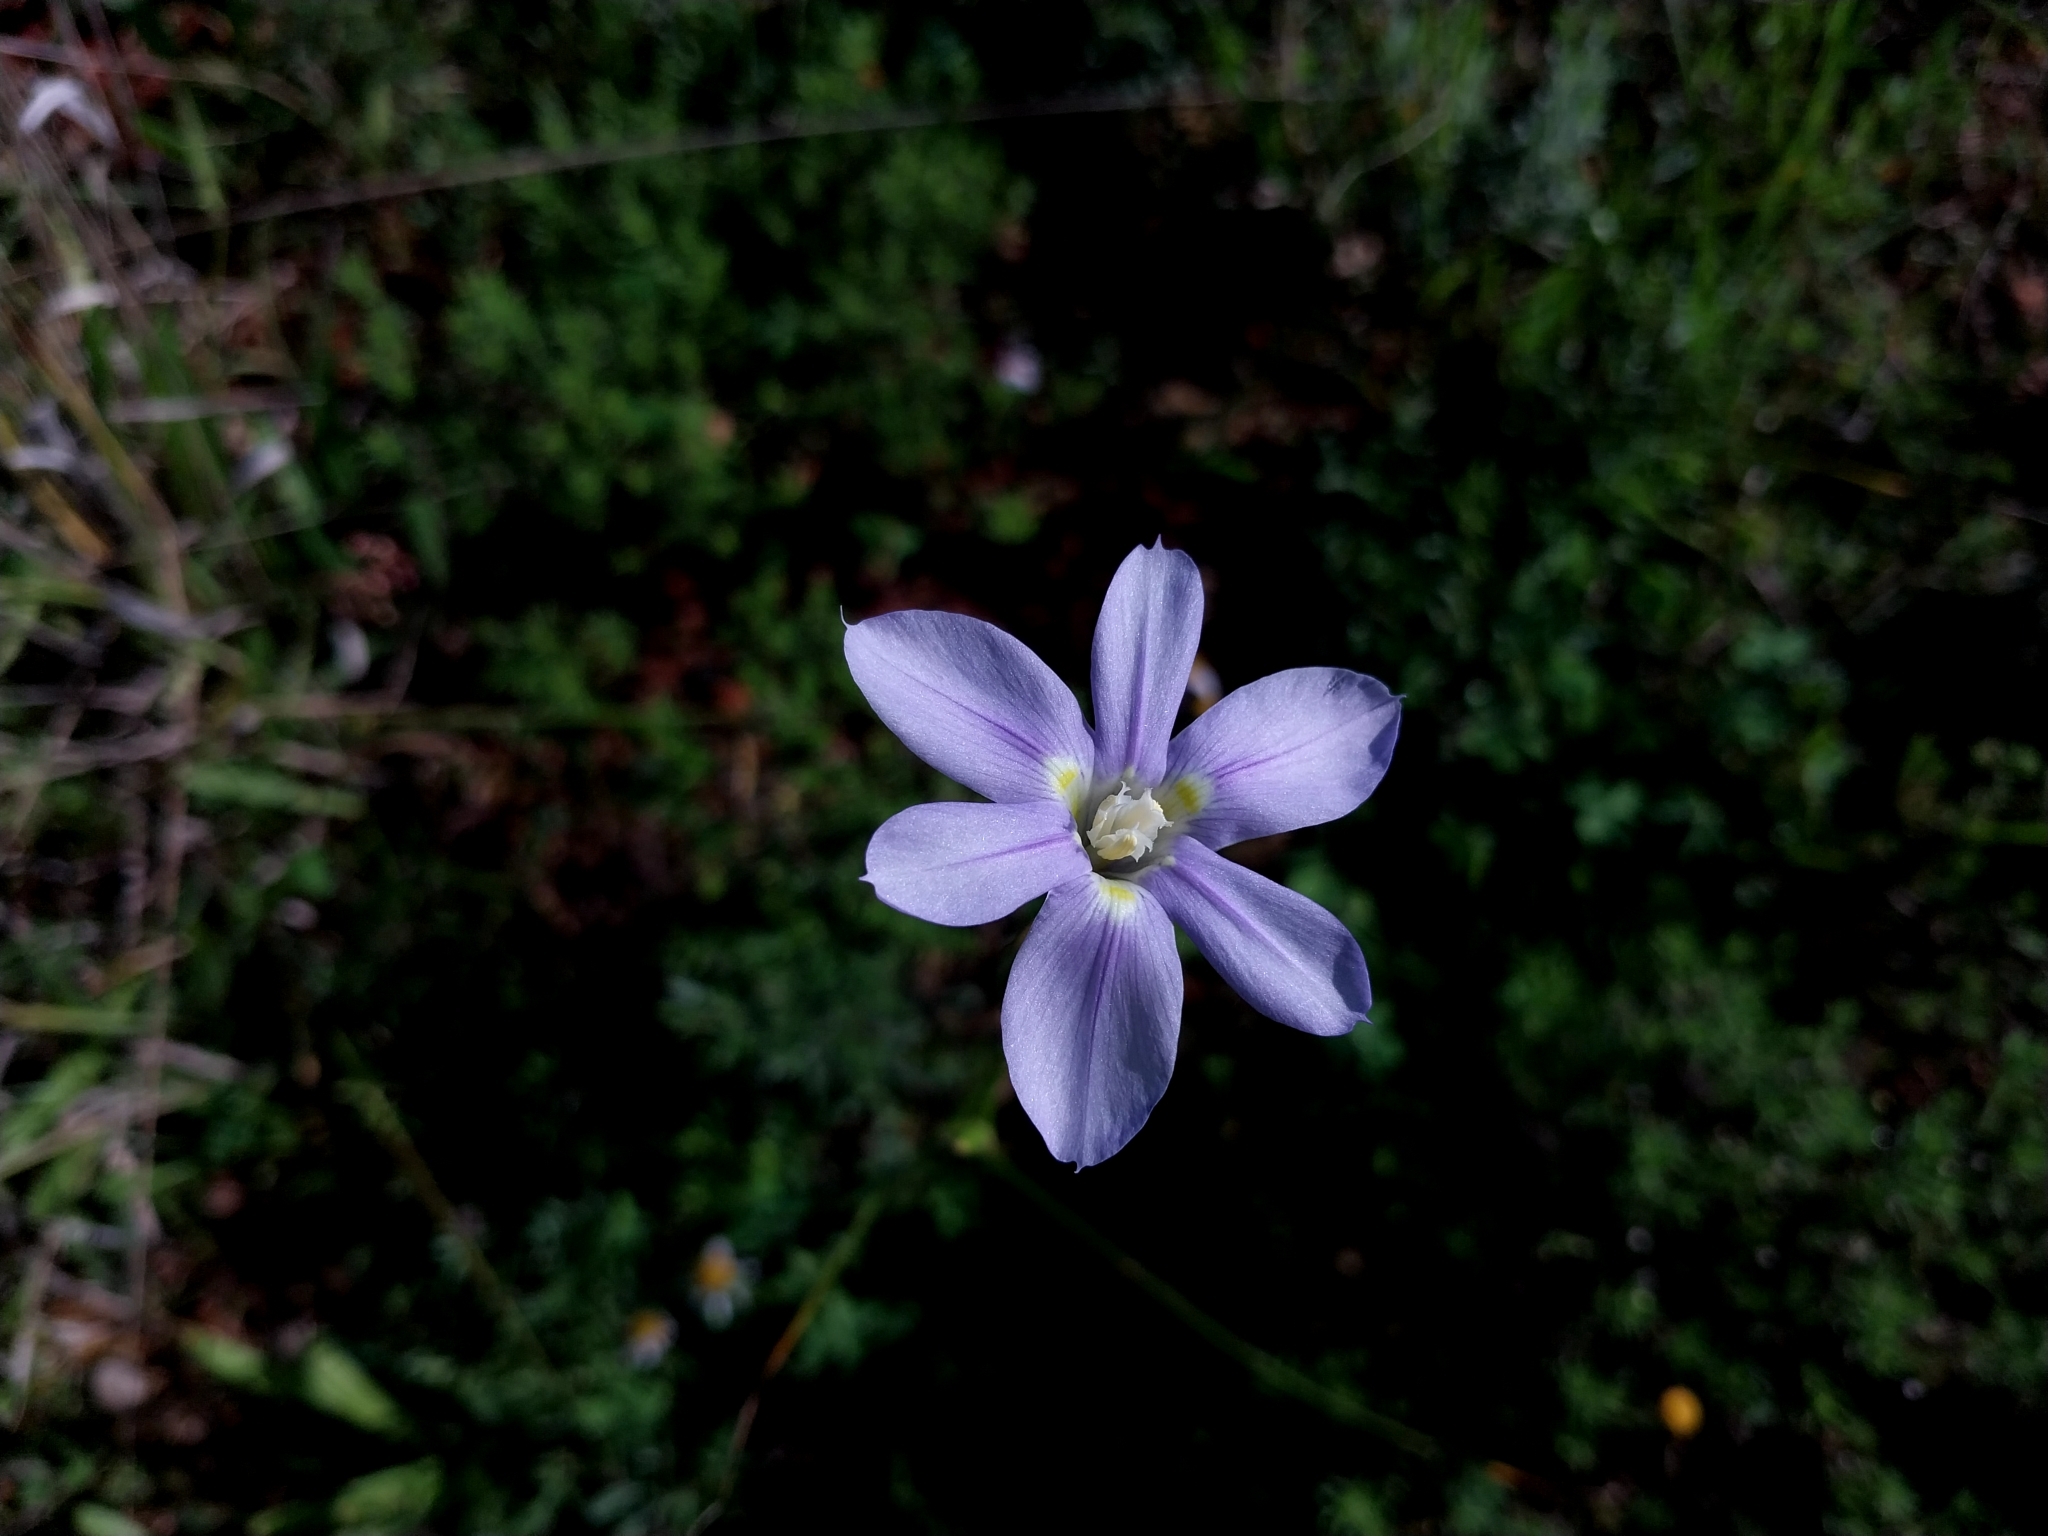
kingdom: Plantae
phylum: Tracheophyta
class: Liliopsida
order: Asparagales
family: Iridaceae
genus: Moraea
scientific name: Moraea polyanthos
